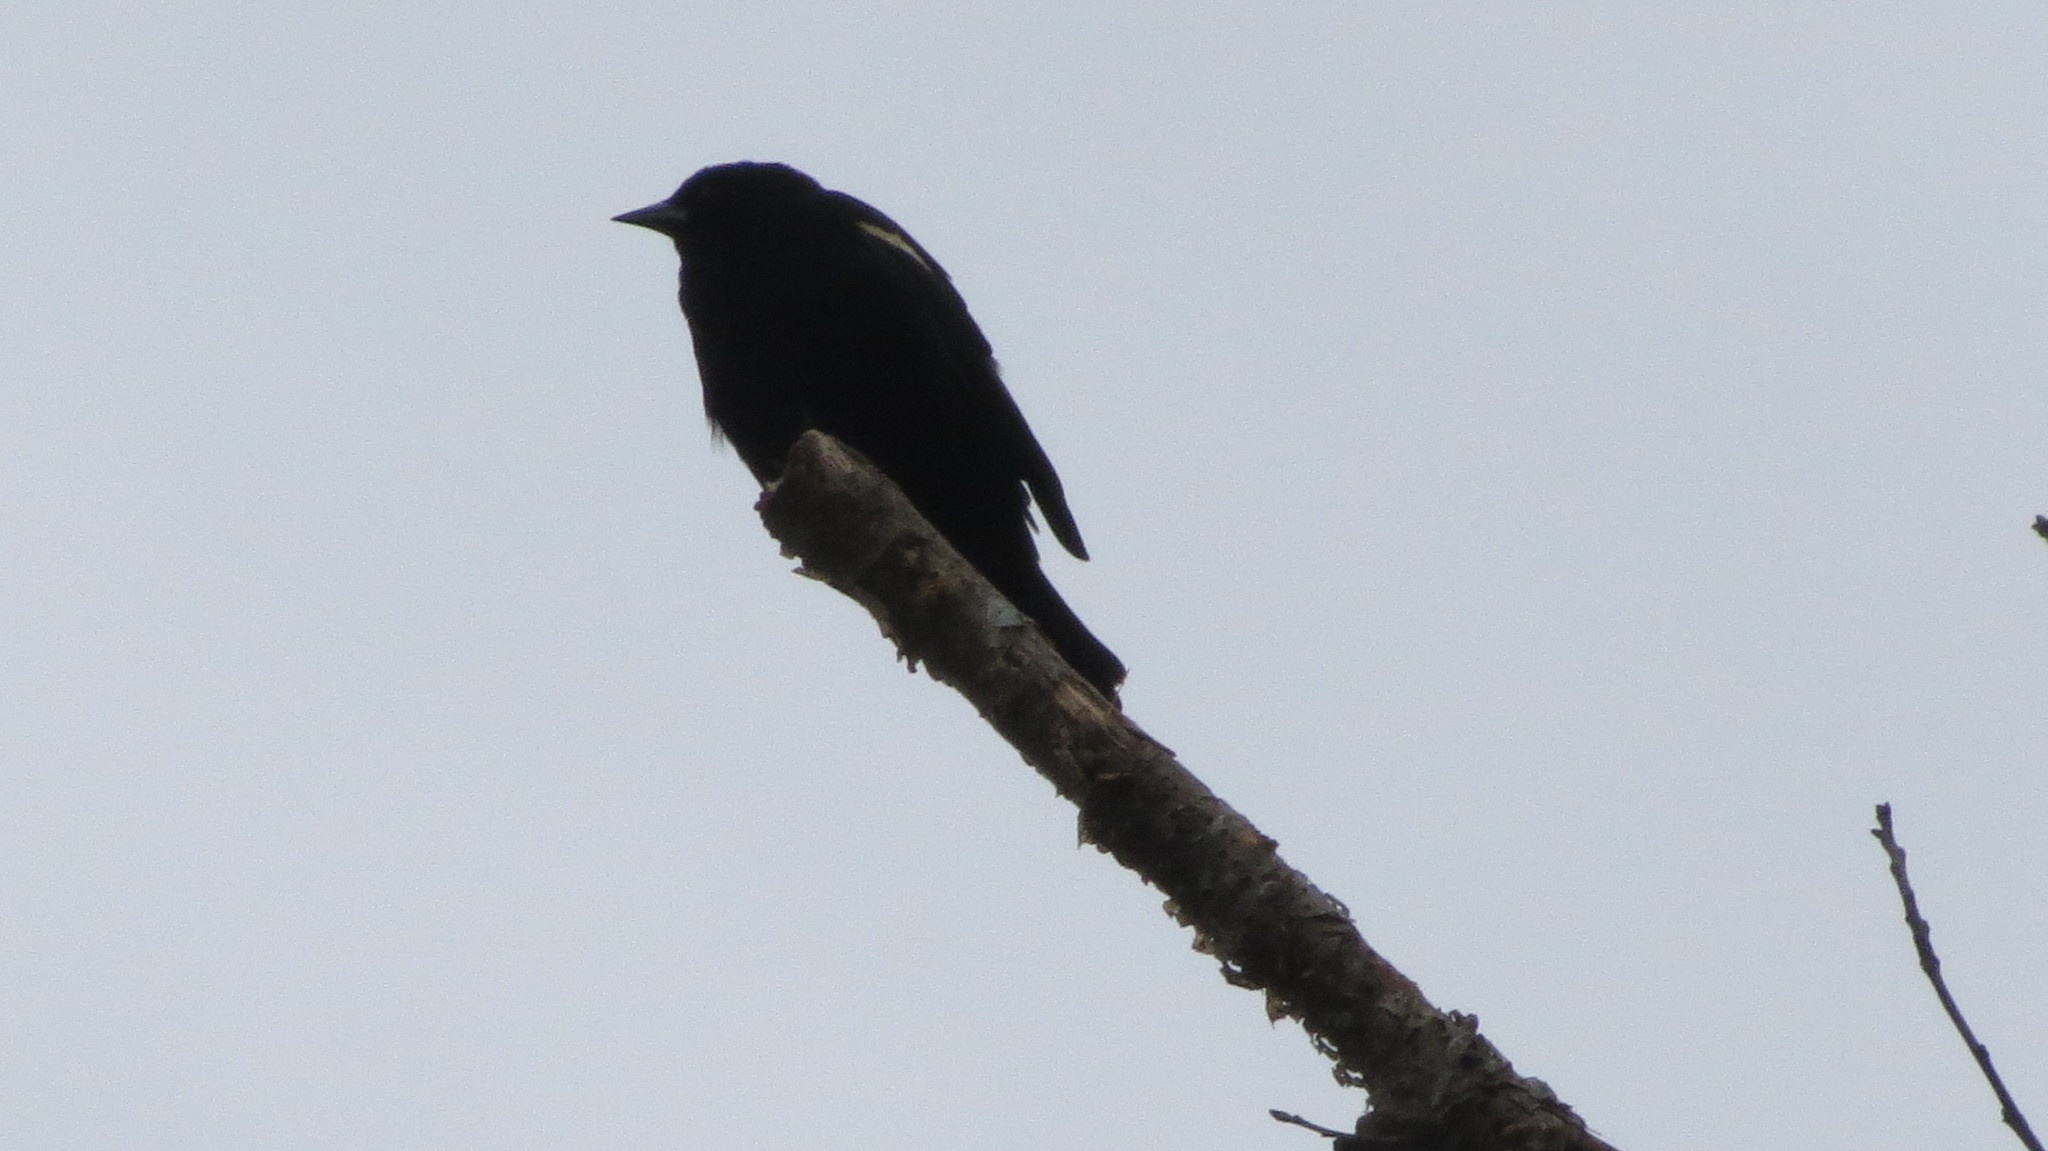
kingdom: Animalia
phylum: Chordata
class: Aves
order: Passeriformes
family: Icteridae
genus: Agelaius
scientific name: Agelaius phoeniceus
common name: Red-winged blackbird
